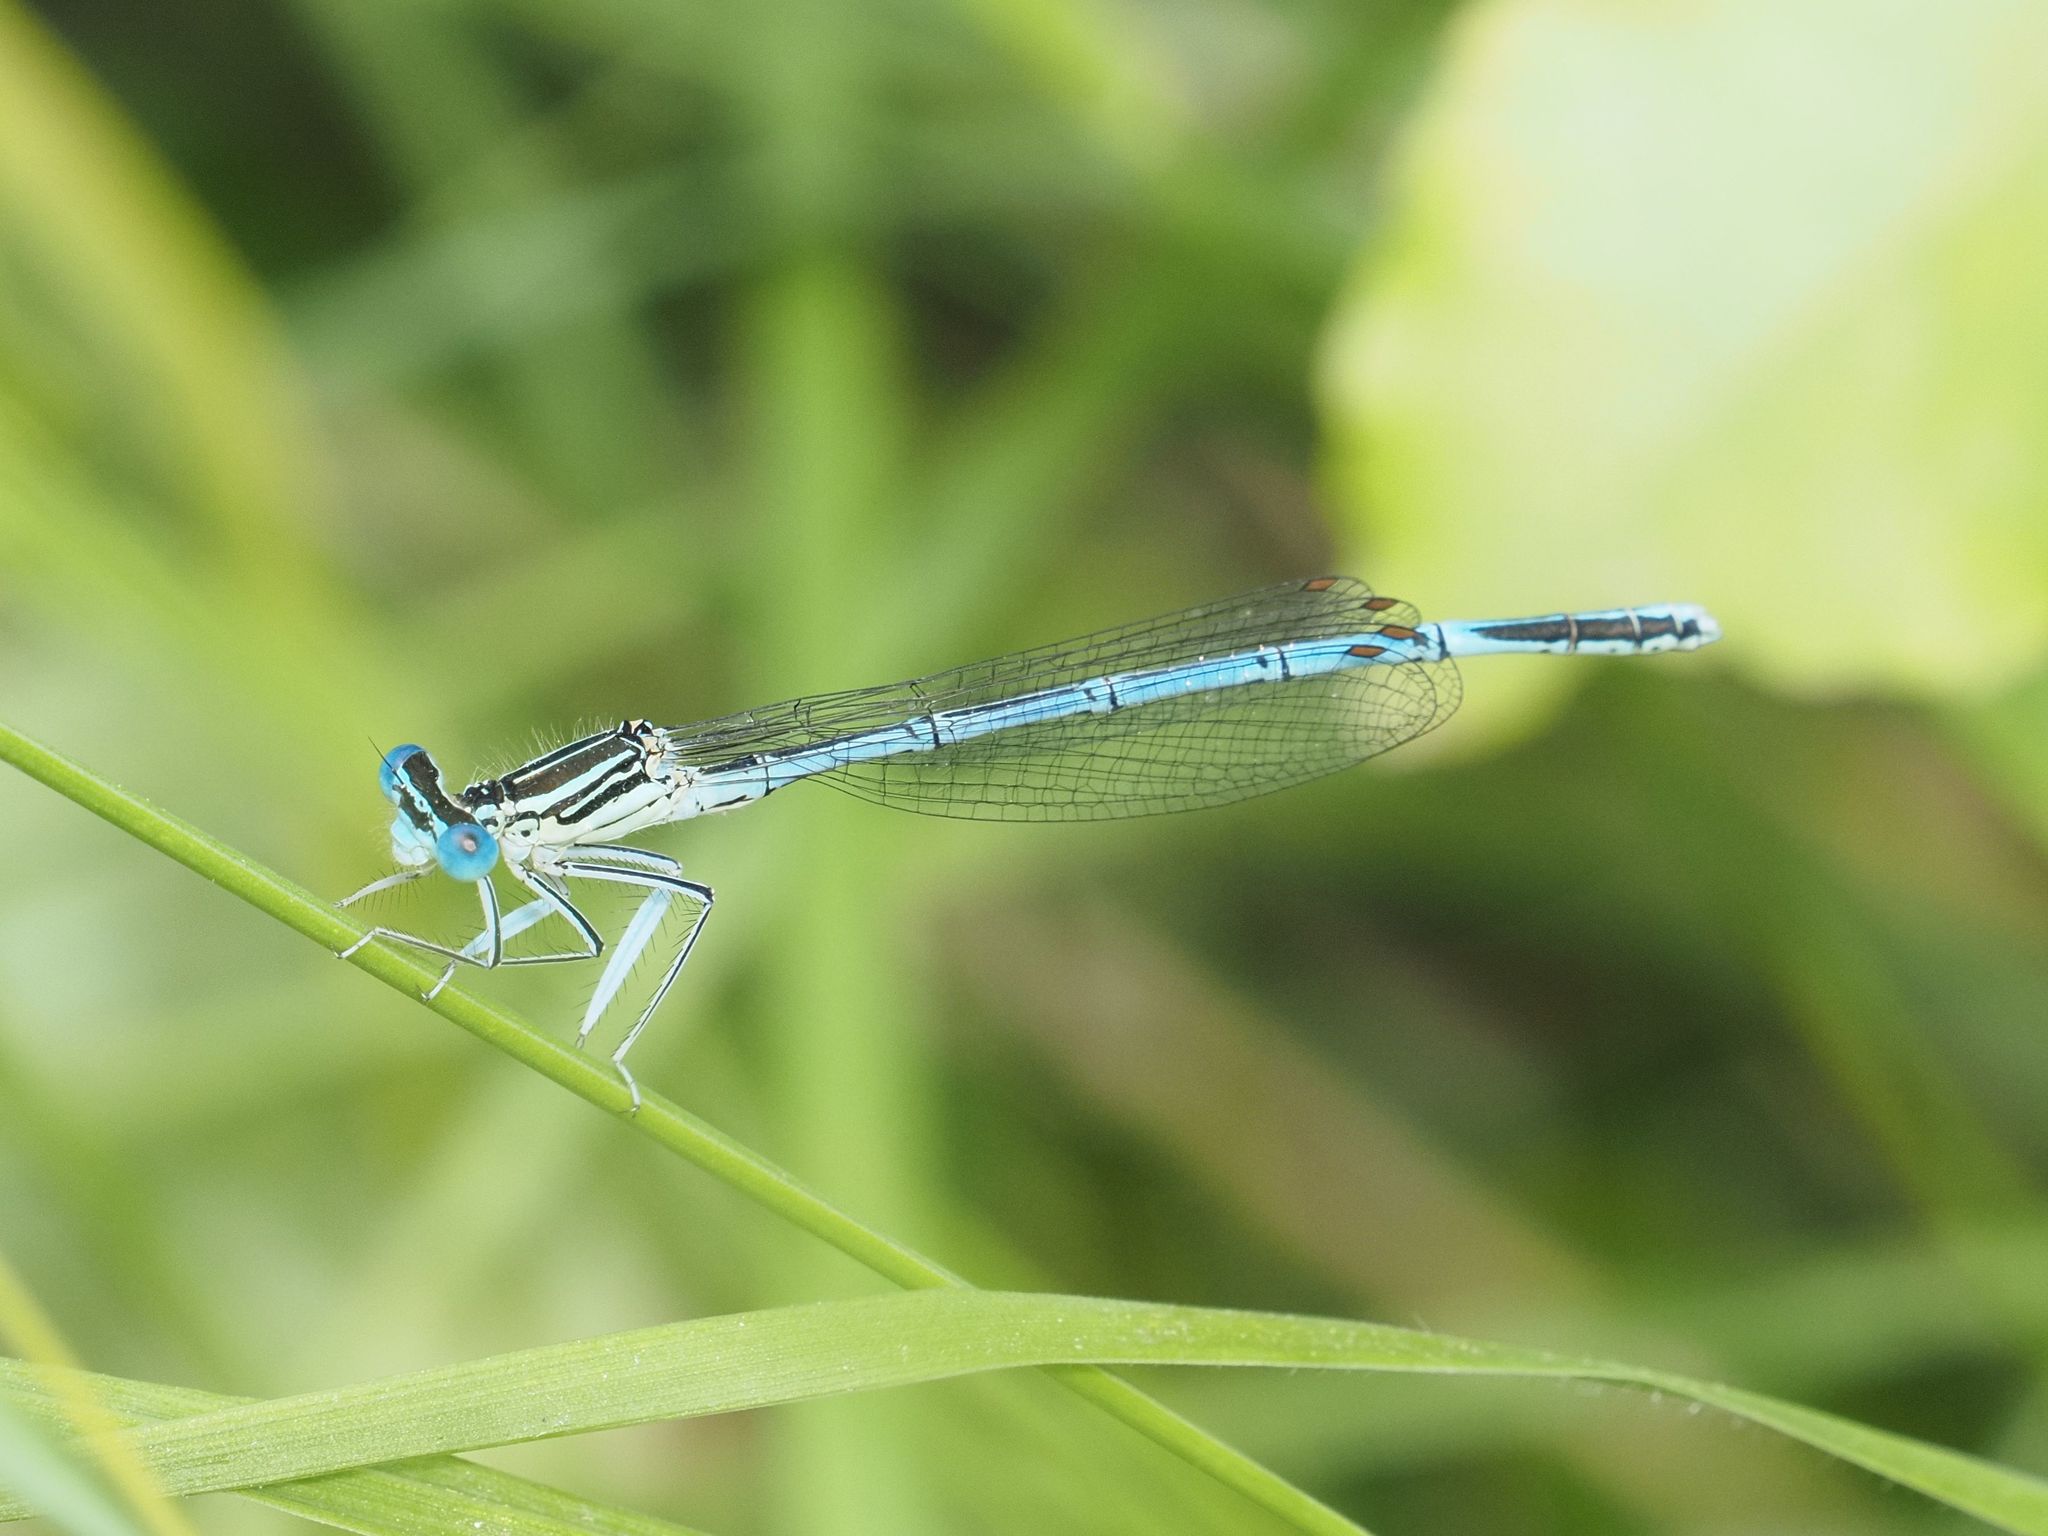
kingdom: Animalia
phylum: Arthropoda
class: Insecta
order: Odonata
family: Platycnemididae
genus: Platycnemis
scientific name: Platycnemis pennipes
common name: White-legged damselfly
